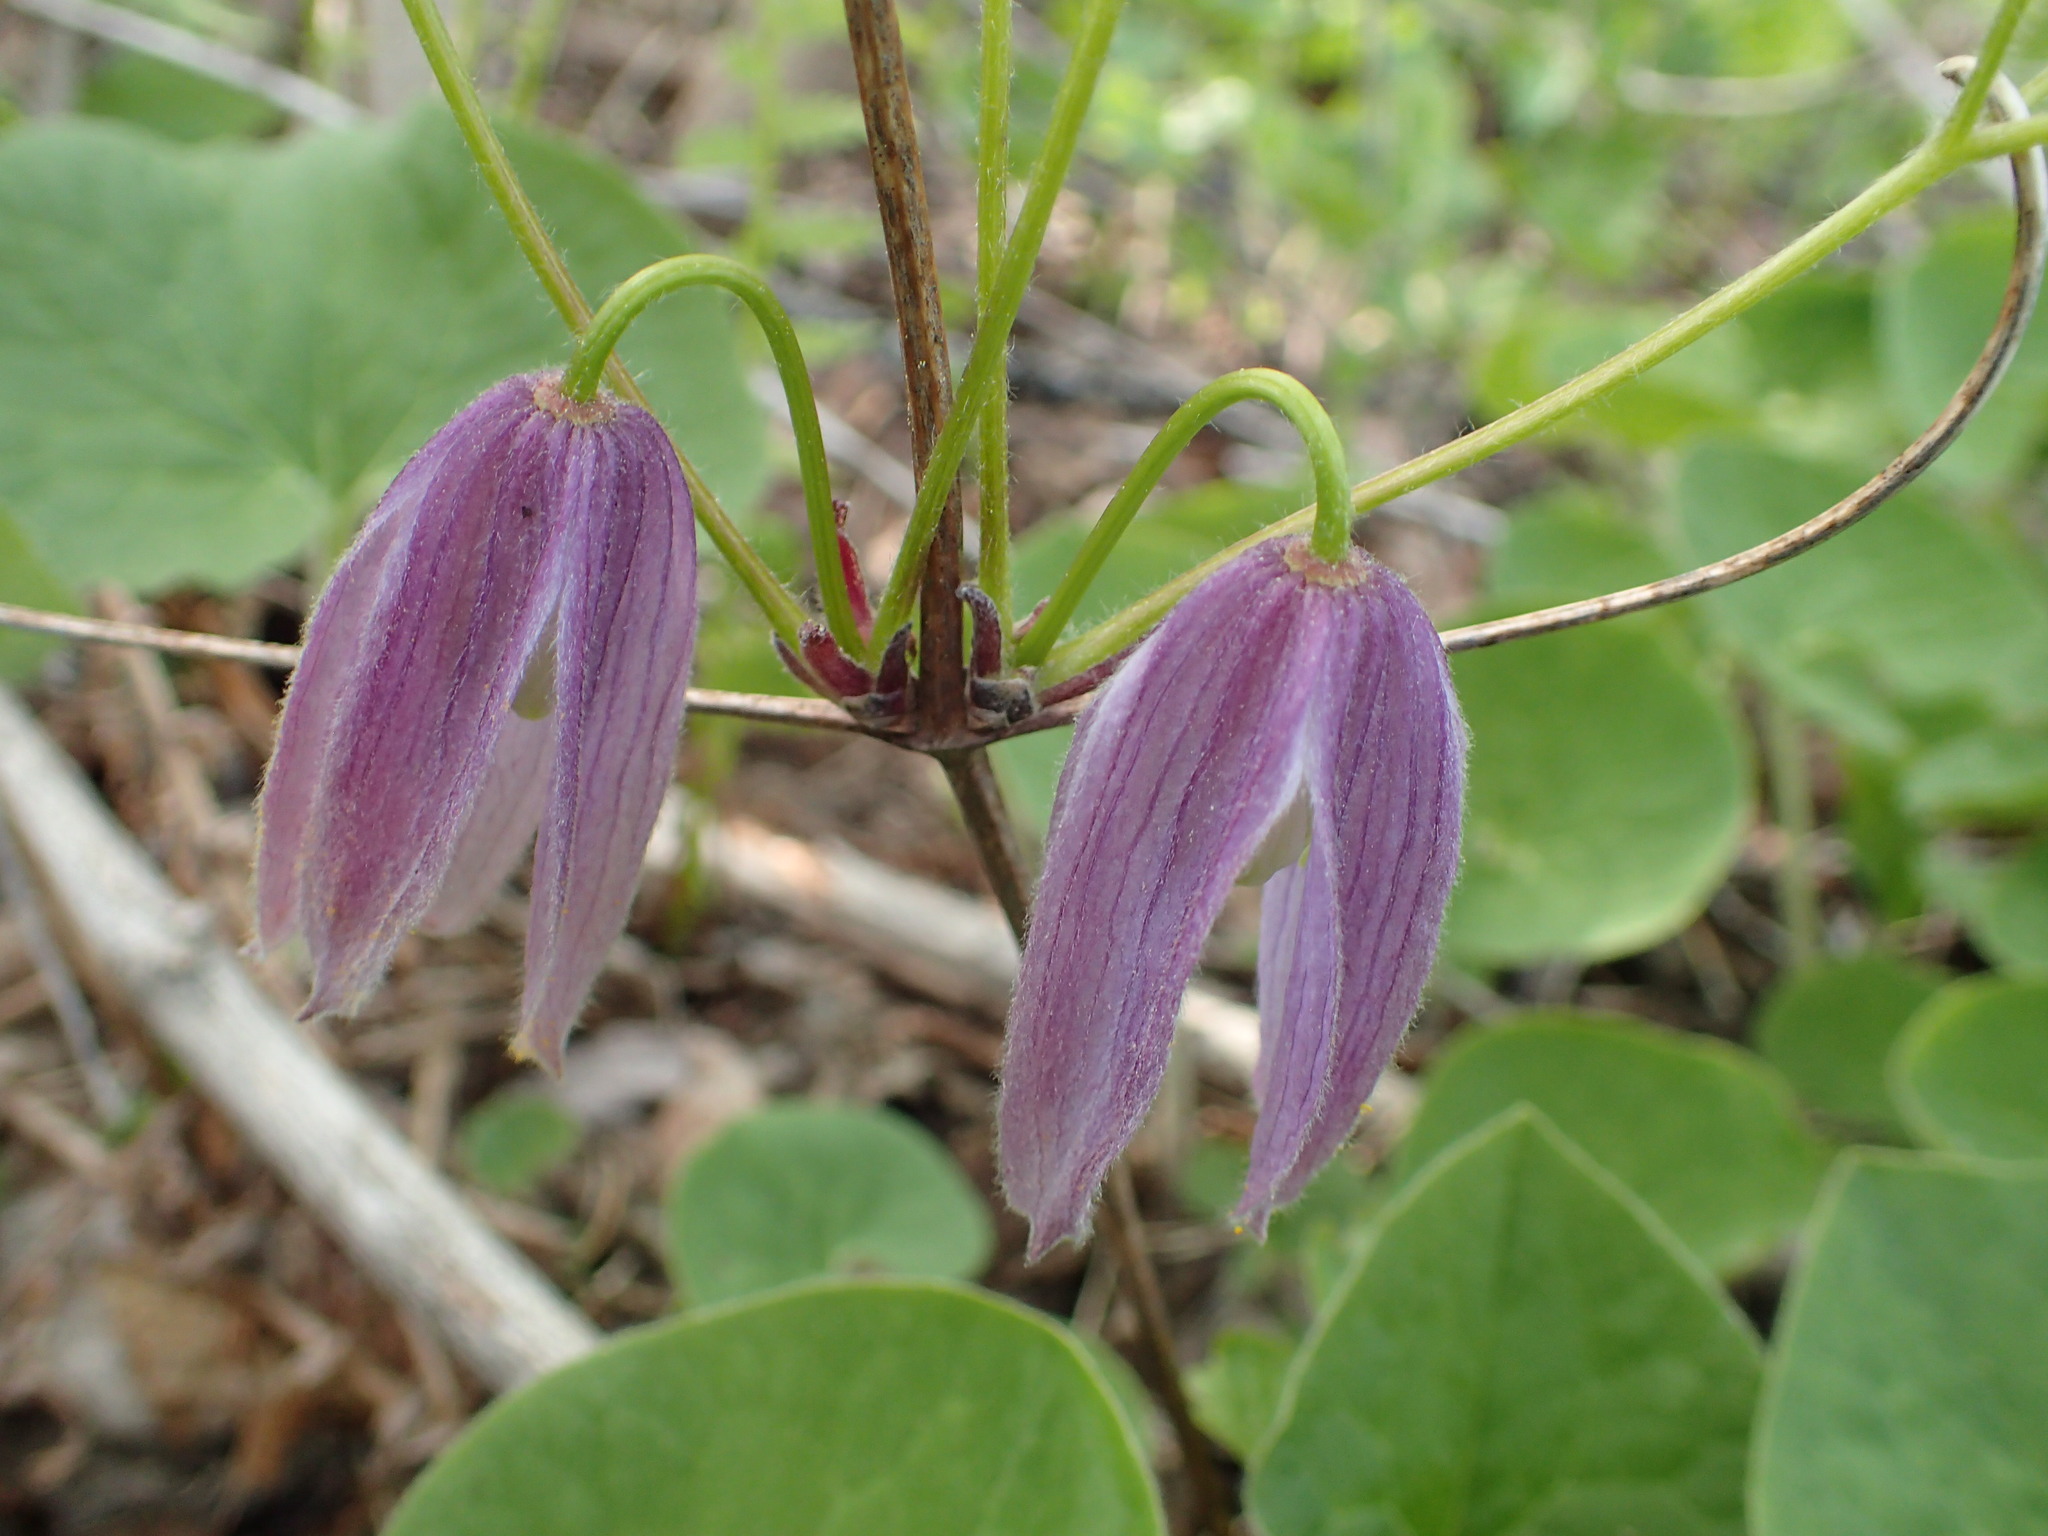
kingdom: Plantae
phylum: Tracheophyta
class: Magnoliopsida
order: Ranunculales
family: Ranunculaceae
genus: Clematis
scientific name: Clematis occidentalis
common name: Purple clematis
